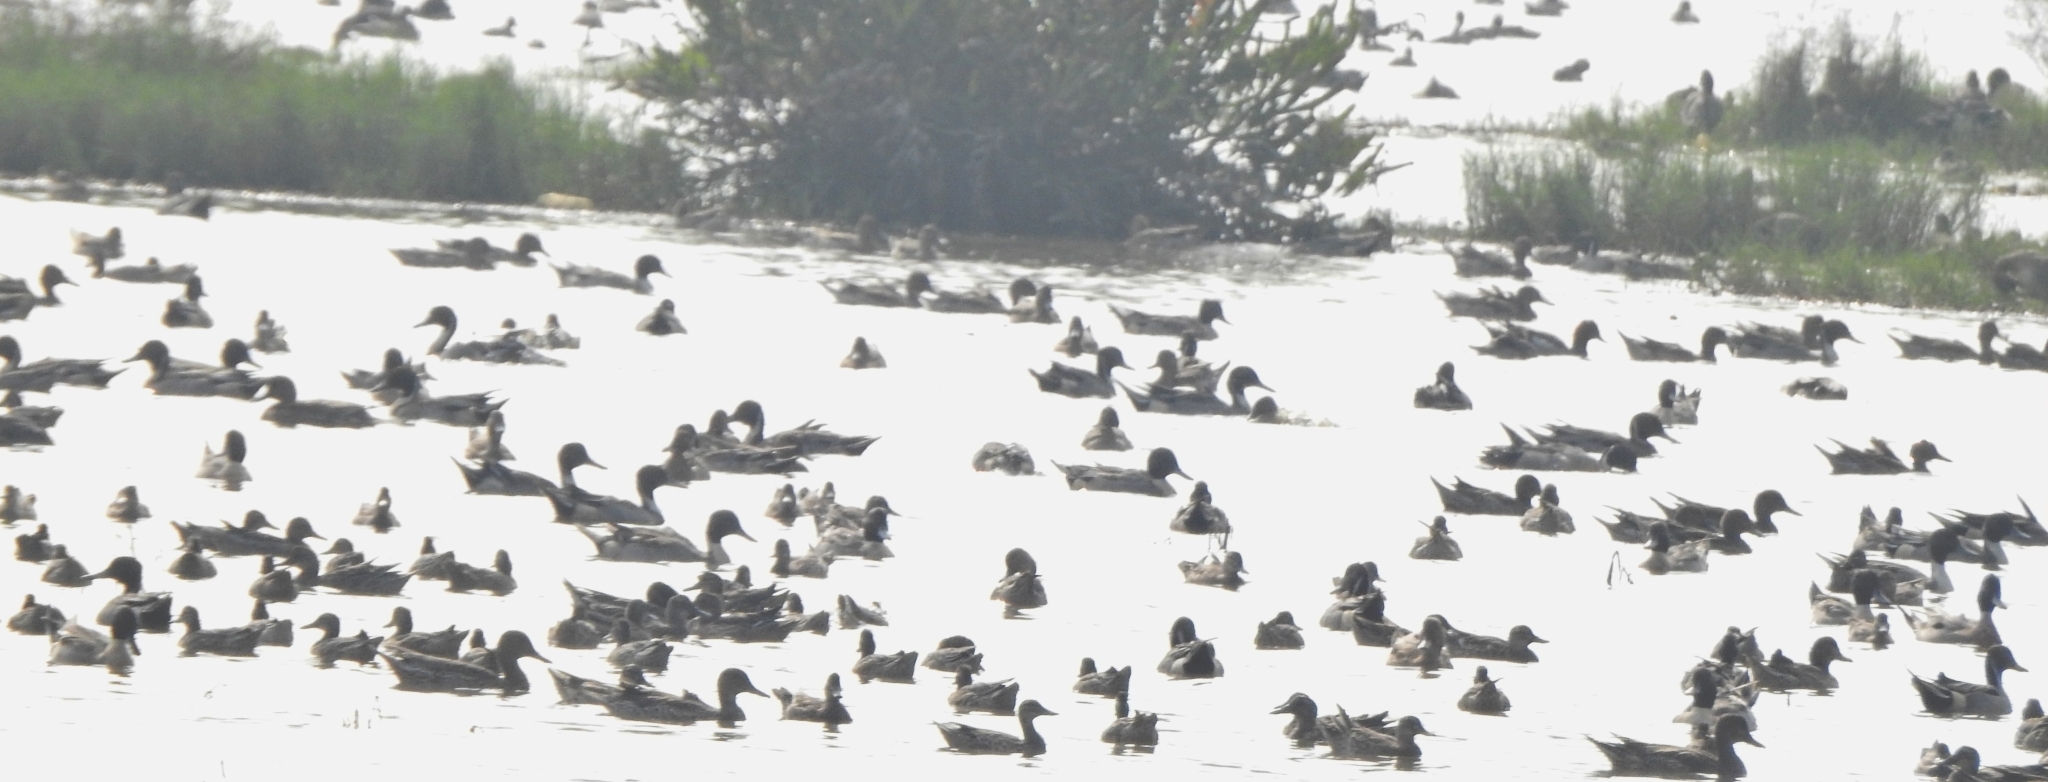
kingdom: Animalia
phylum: Chordata
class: Aves
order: Anseriformes
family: Anatidae
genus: Anas
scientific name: Anas acuta
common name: Northern pintail
